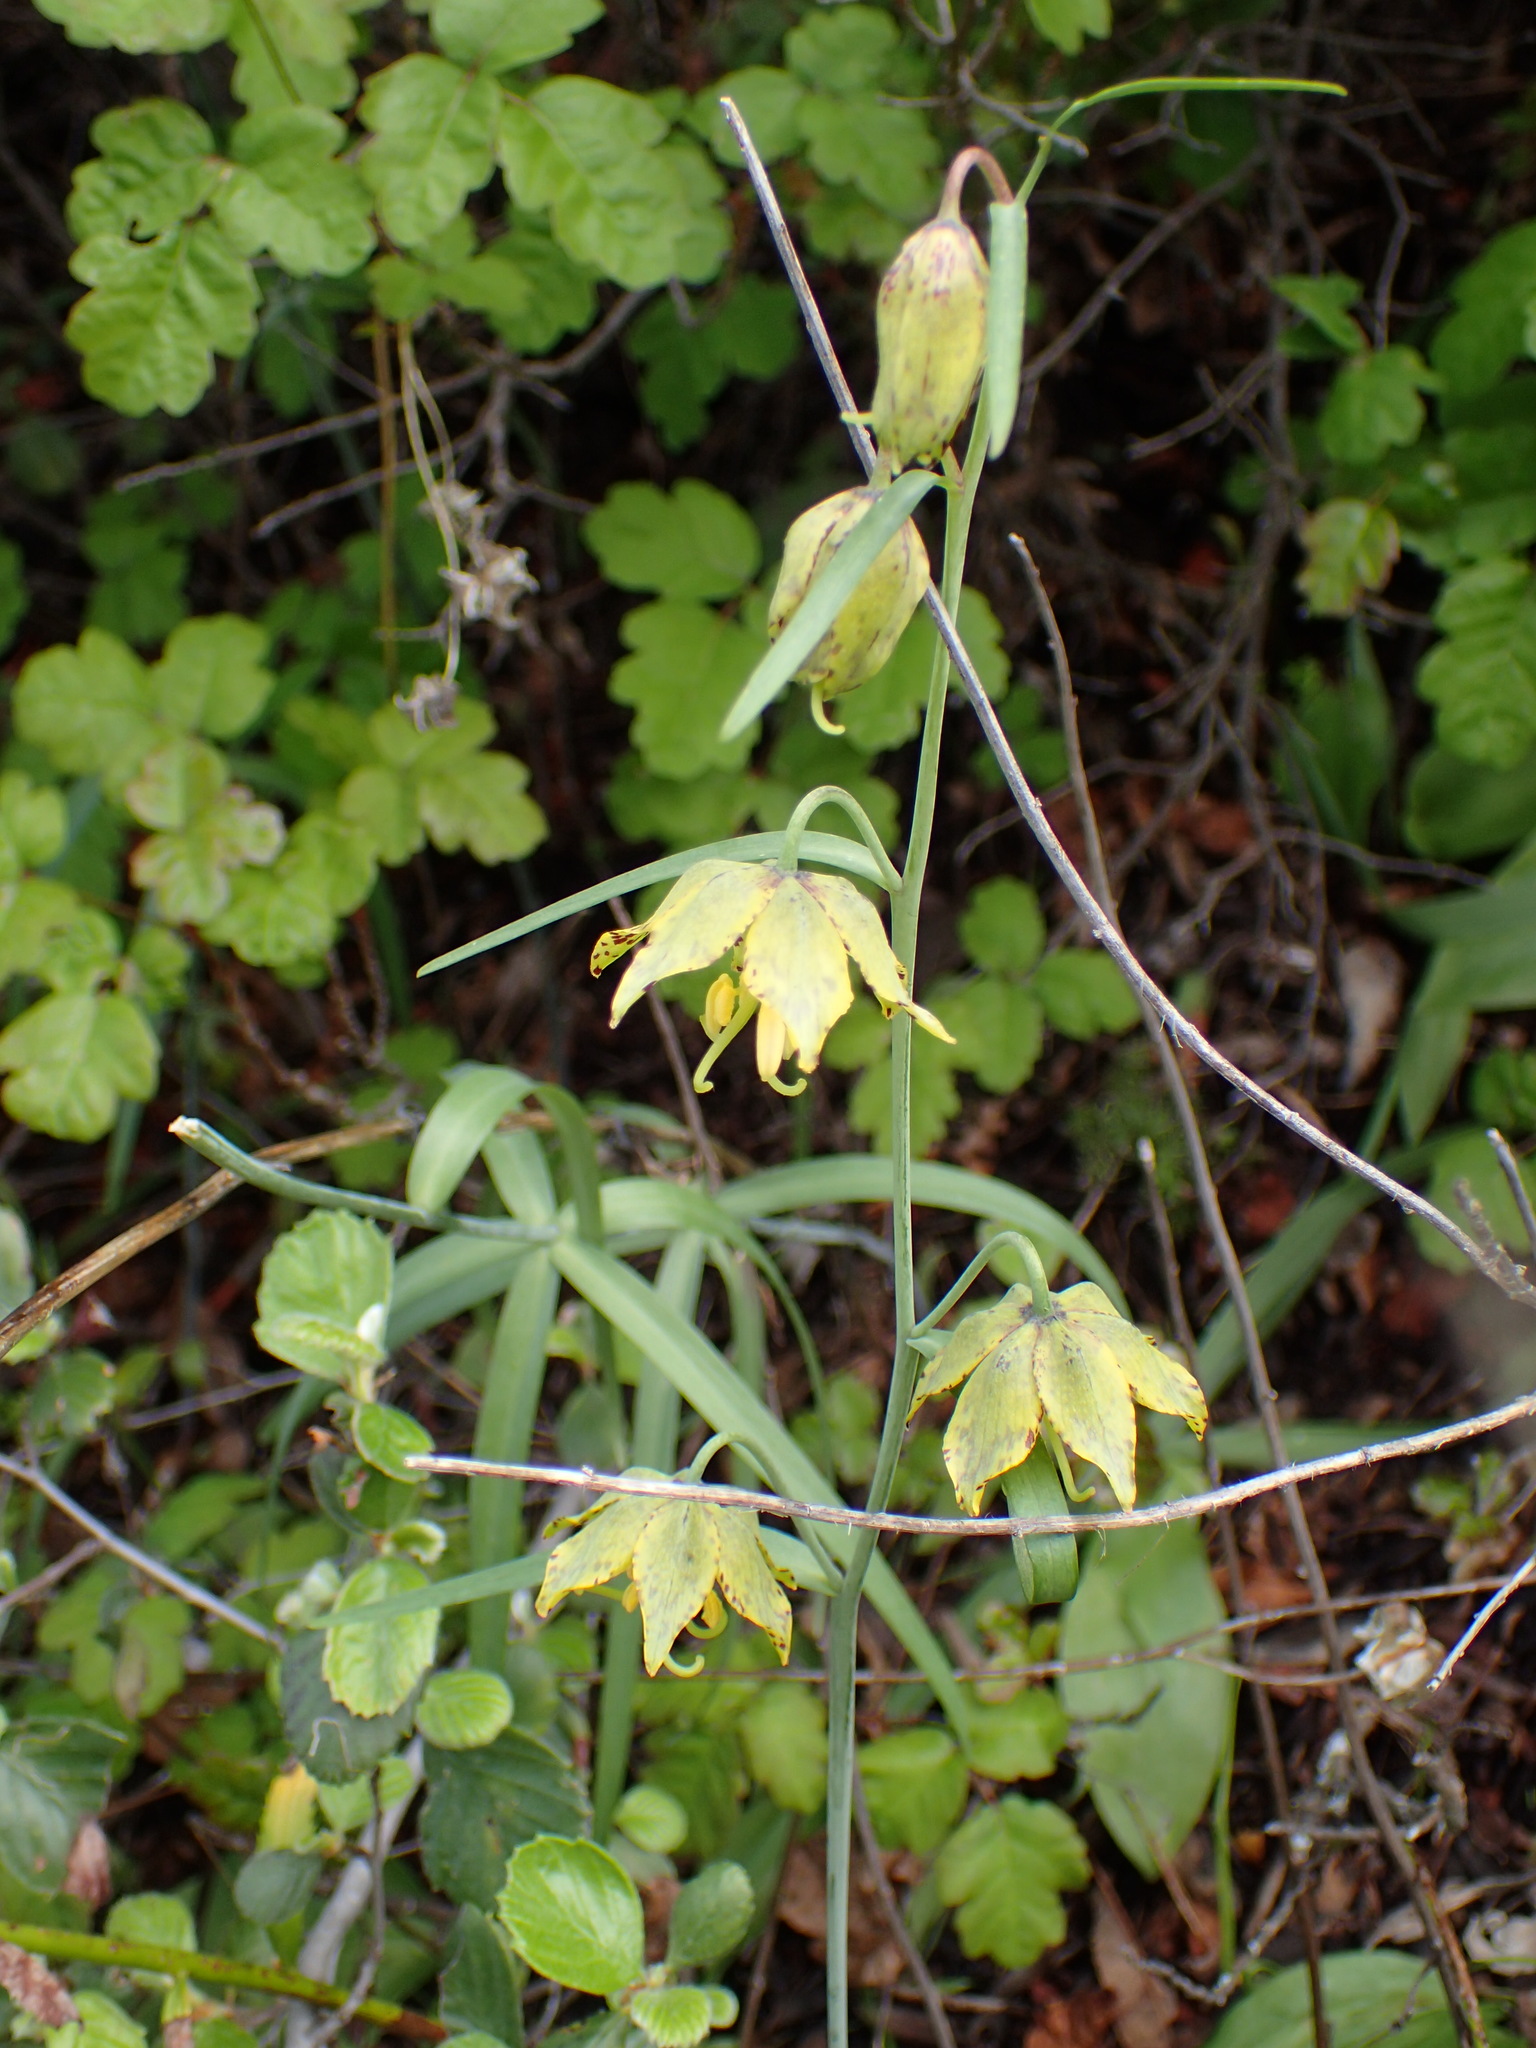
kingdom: Plantae
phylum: Tracheophyta
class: Liliopsida
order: Liliales
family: Liliaceae
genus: Fritillaria
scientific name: Fritillaria ojaiensis
